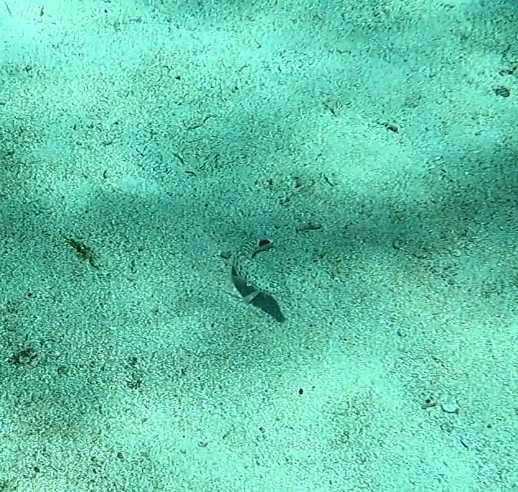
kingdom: Animalia
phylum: Chordata
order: Perciformes
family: Pinguipedidae
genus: Parapercis
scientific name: Parapercis queenslandica
